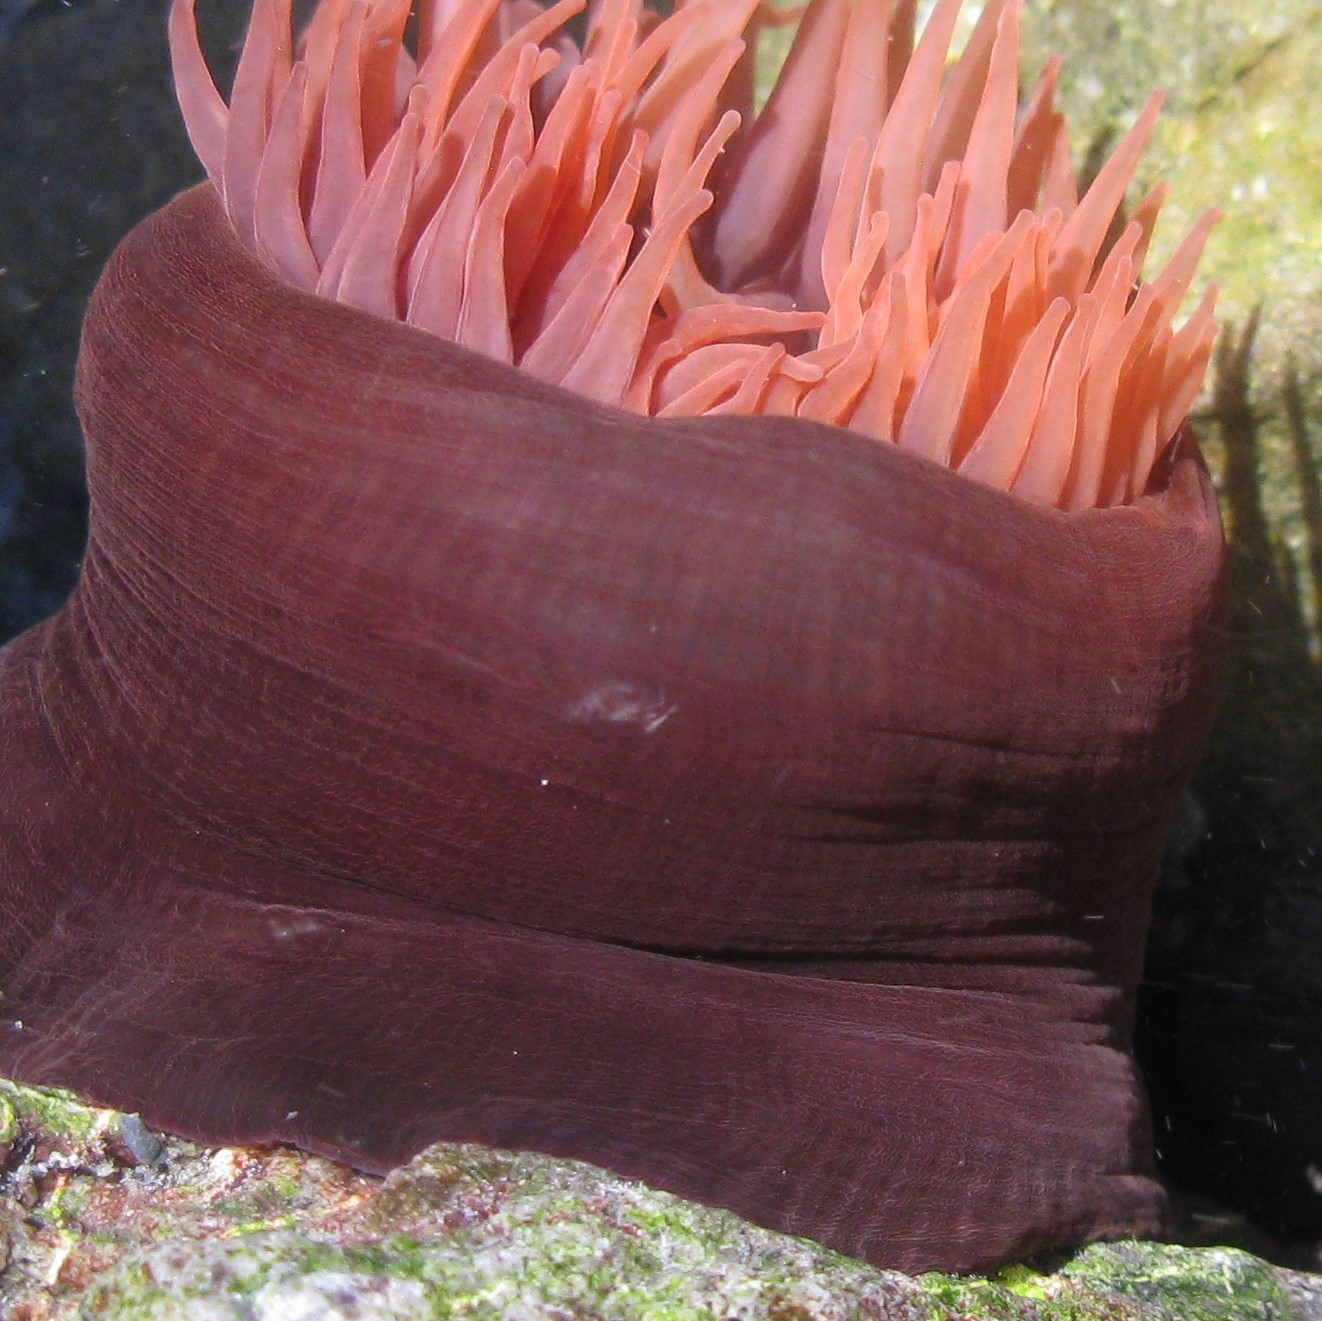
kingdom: Animalia
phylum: Cnidaria
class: Anthozoa
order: Actiniaria
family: Actiniidae
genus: Actinia
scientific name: Actinia tenebrosa
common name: Waratah anemone
